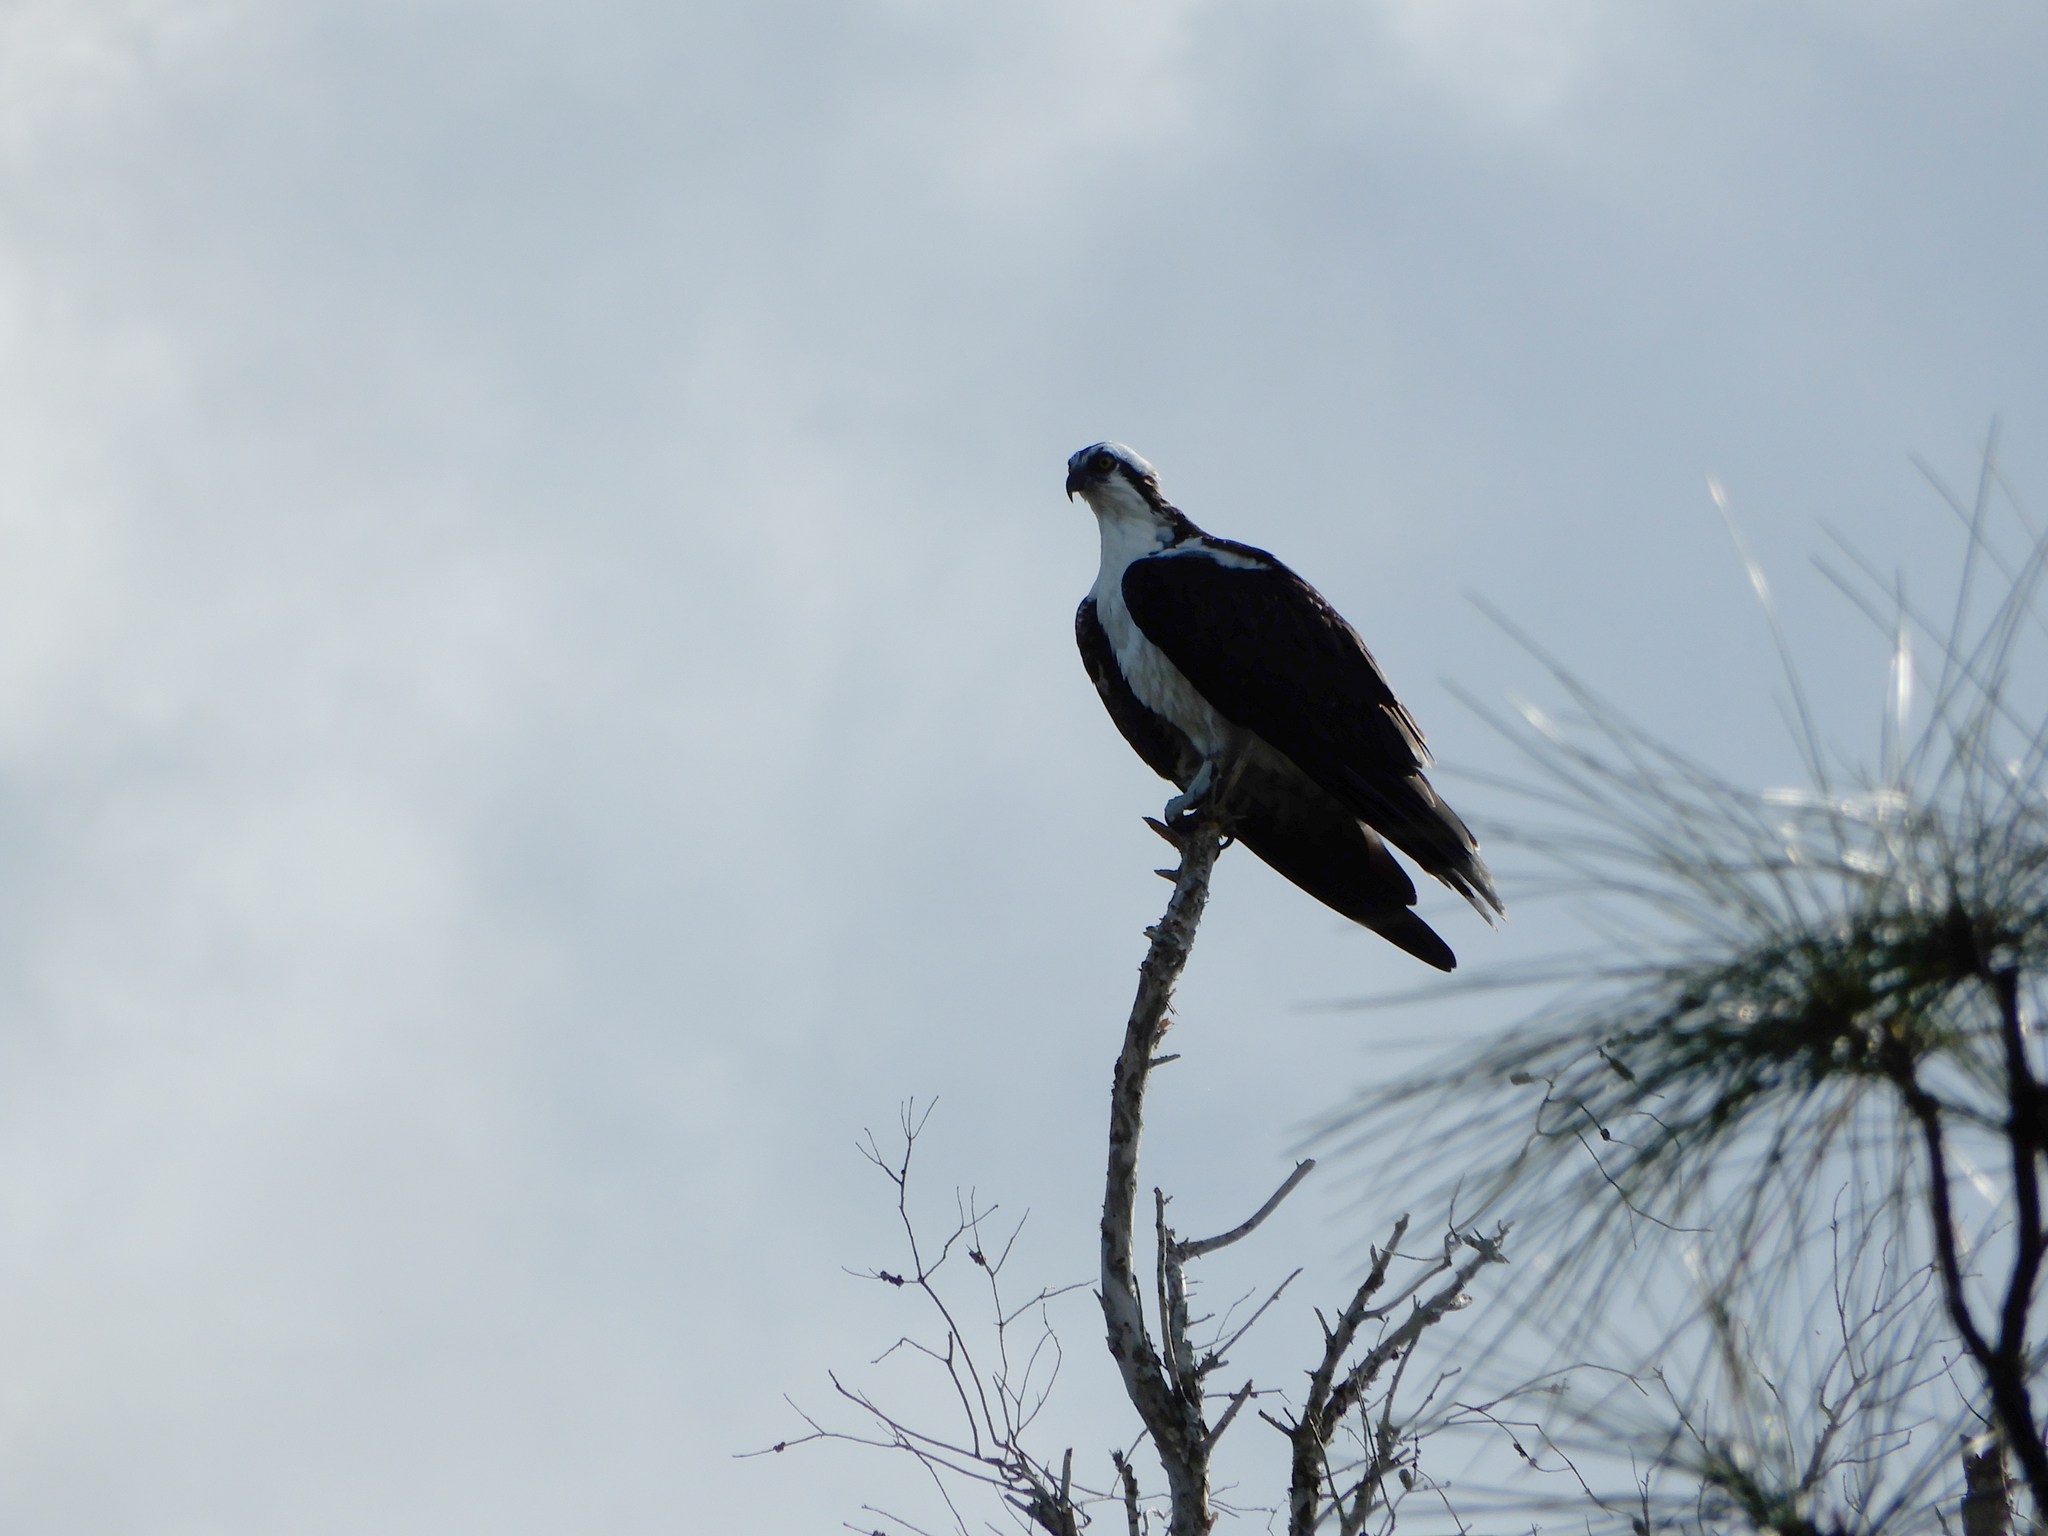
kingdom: Animalia
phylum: Chordata
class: Aves
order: Accipitriformes
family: Pandionidae
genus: Pandion
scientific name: Pandion haliaetus
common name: Osprey
